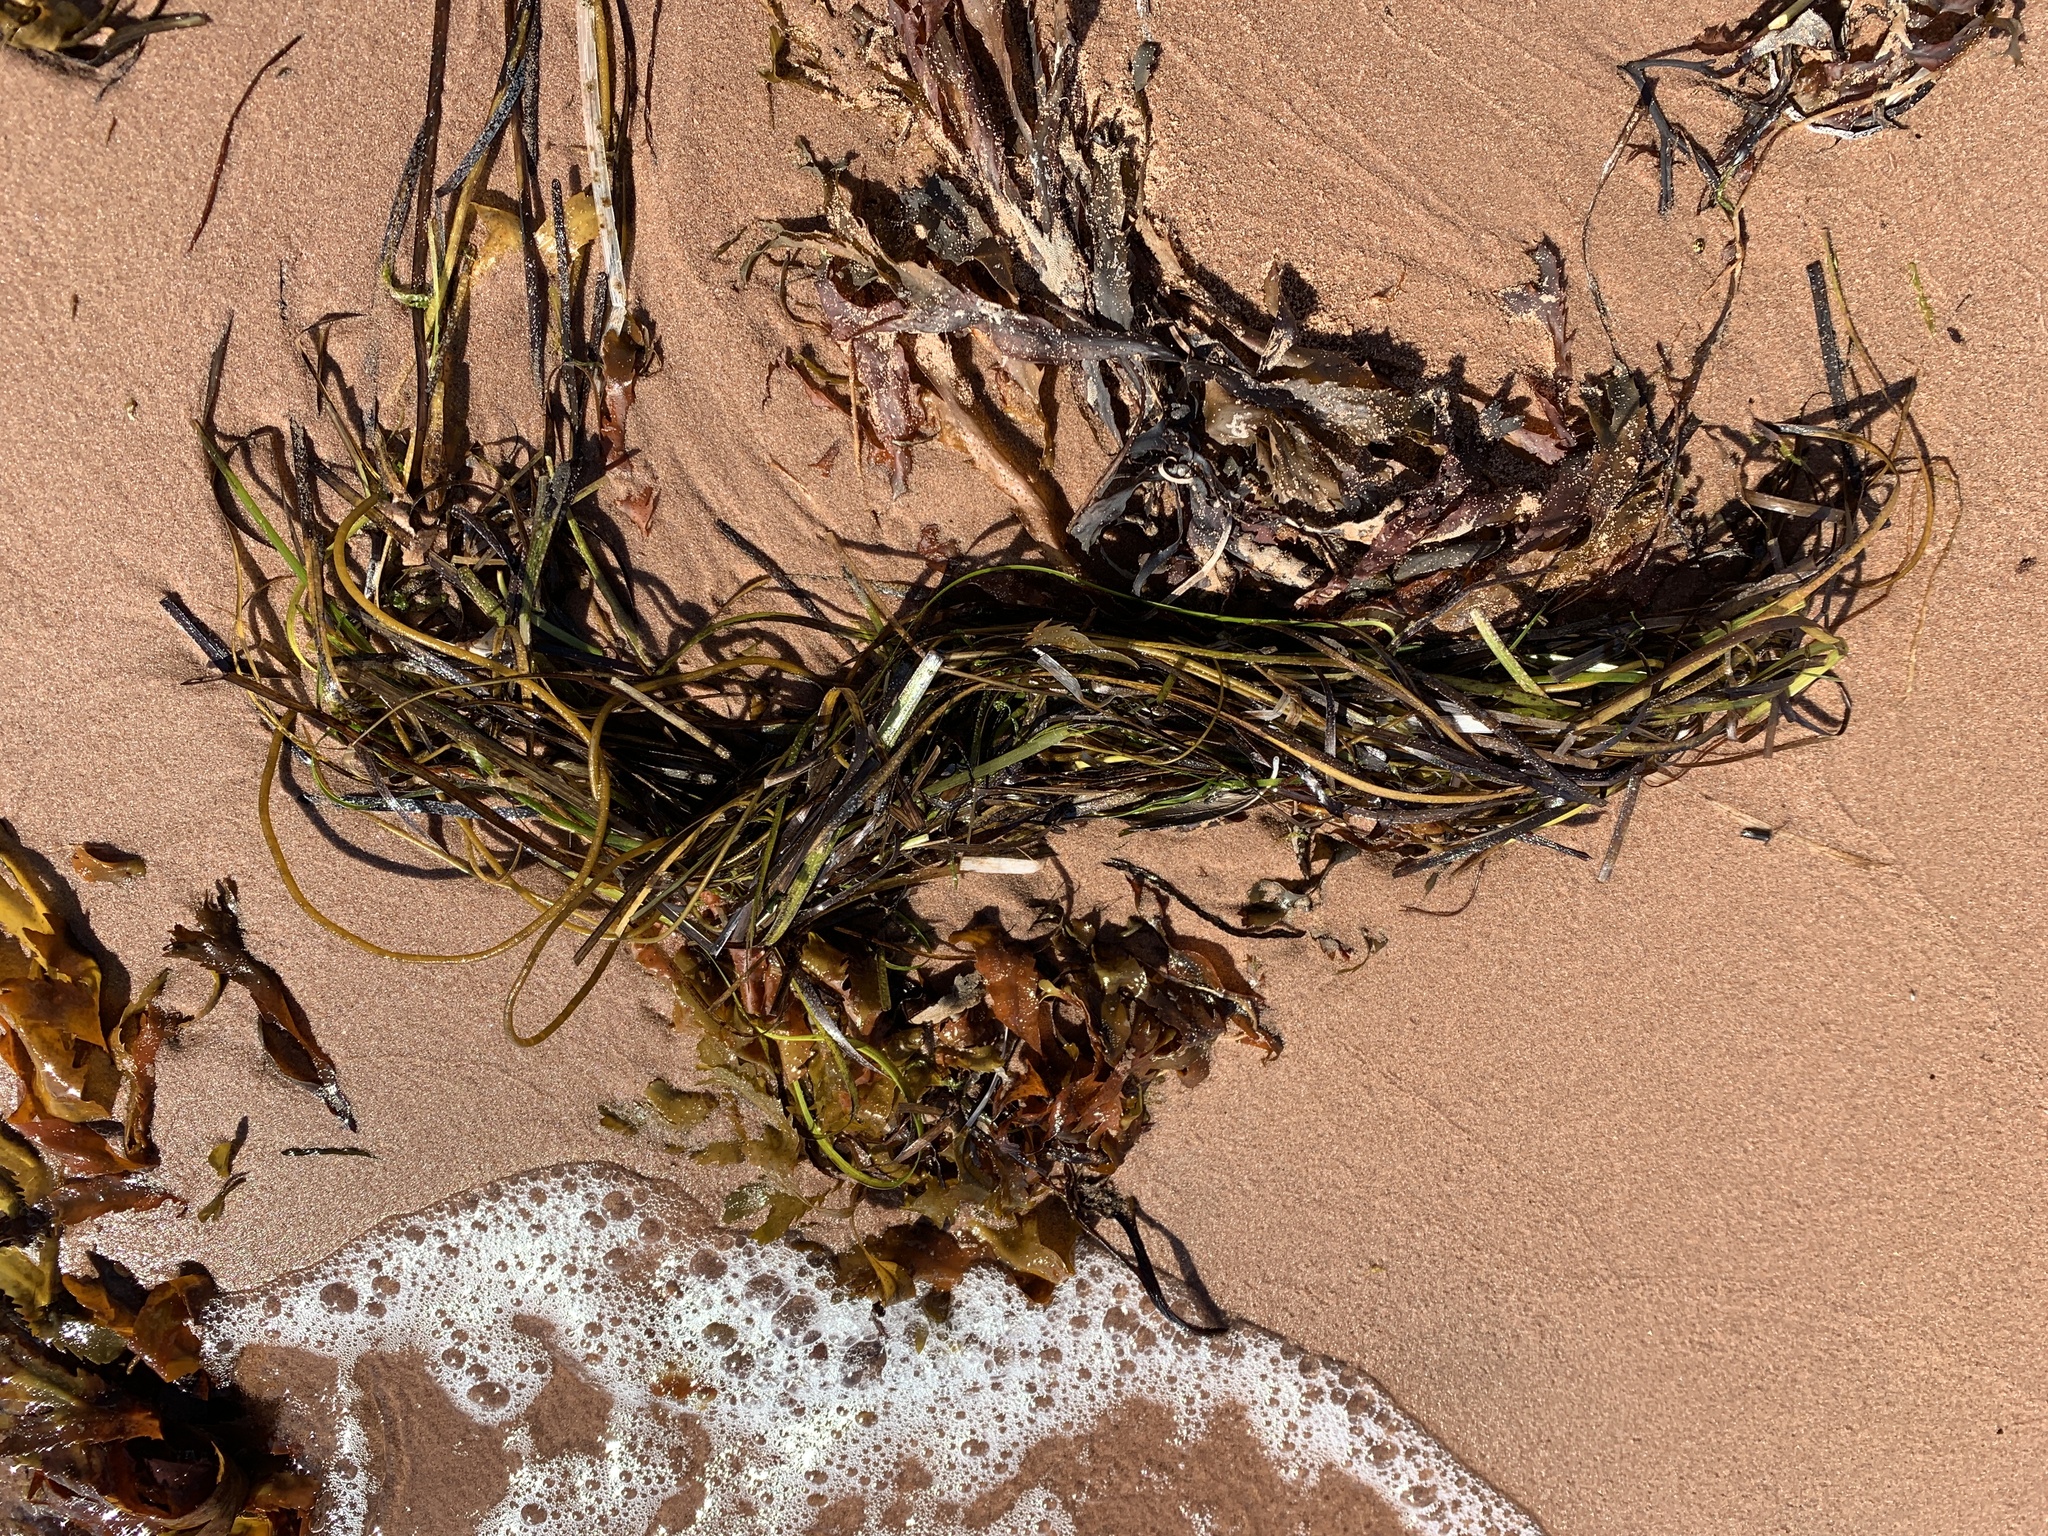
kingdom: Plantae
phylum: Tracheophyta
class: Liliopsida
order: Alismatales
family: Zosteraceae
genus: Zostera
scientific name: Zostera marina
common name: Eelgrass
